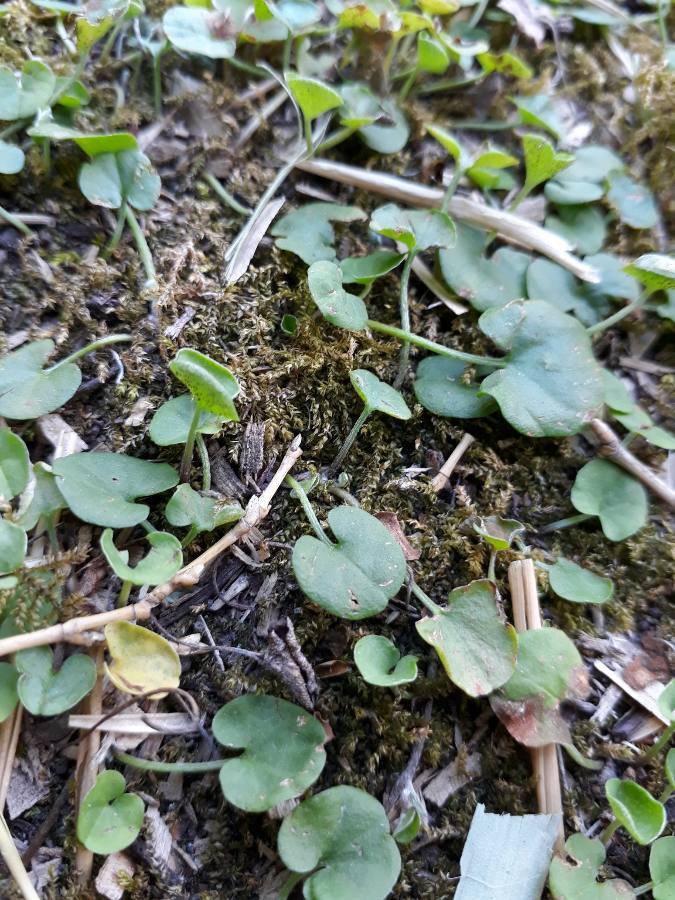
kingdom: Plantae
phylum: Tracheophyta
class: Magnoliopsida
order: Solanales
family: Convolvulaceae
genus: Dichondra
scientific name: Dichondra microcalyx
